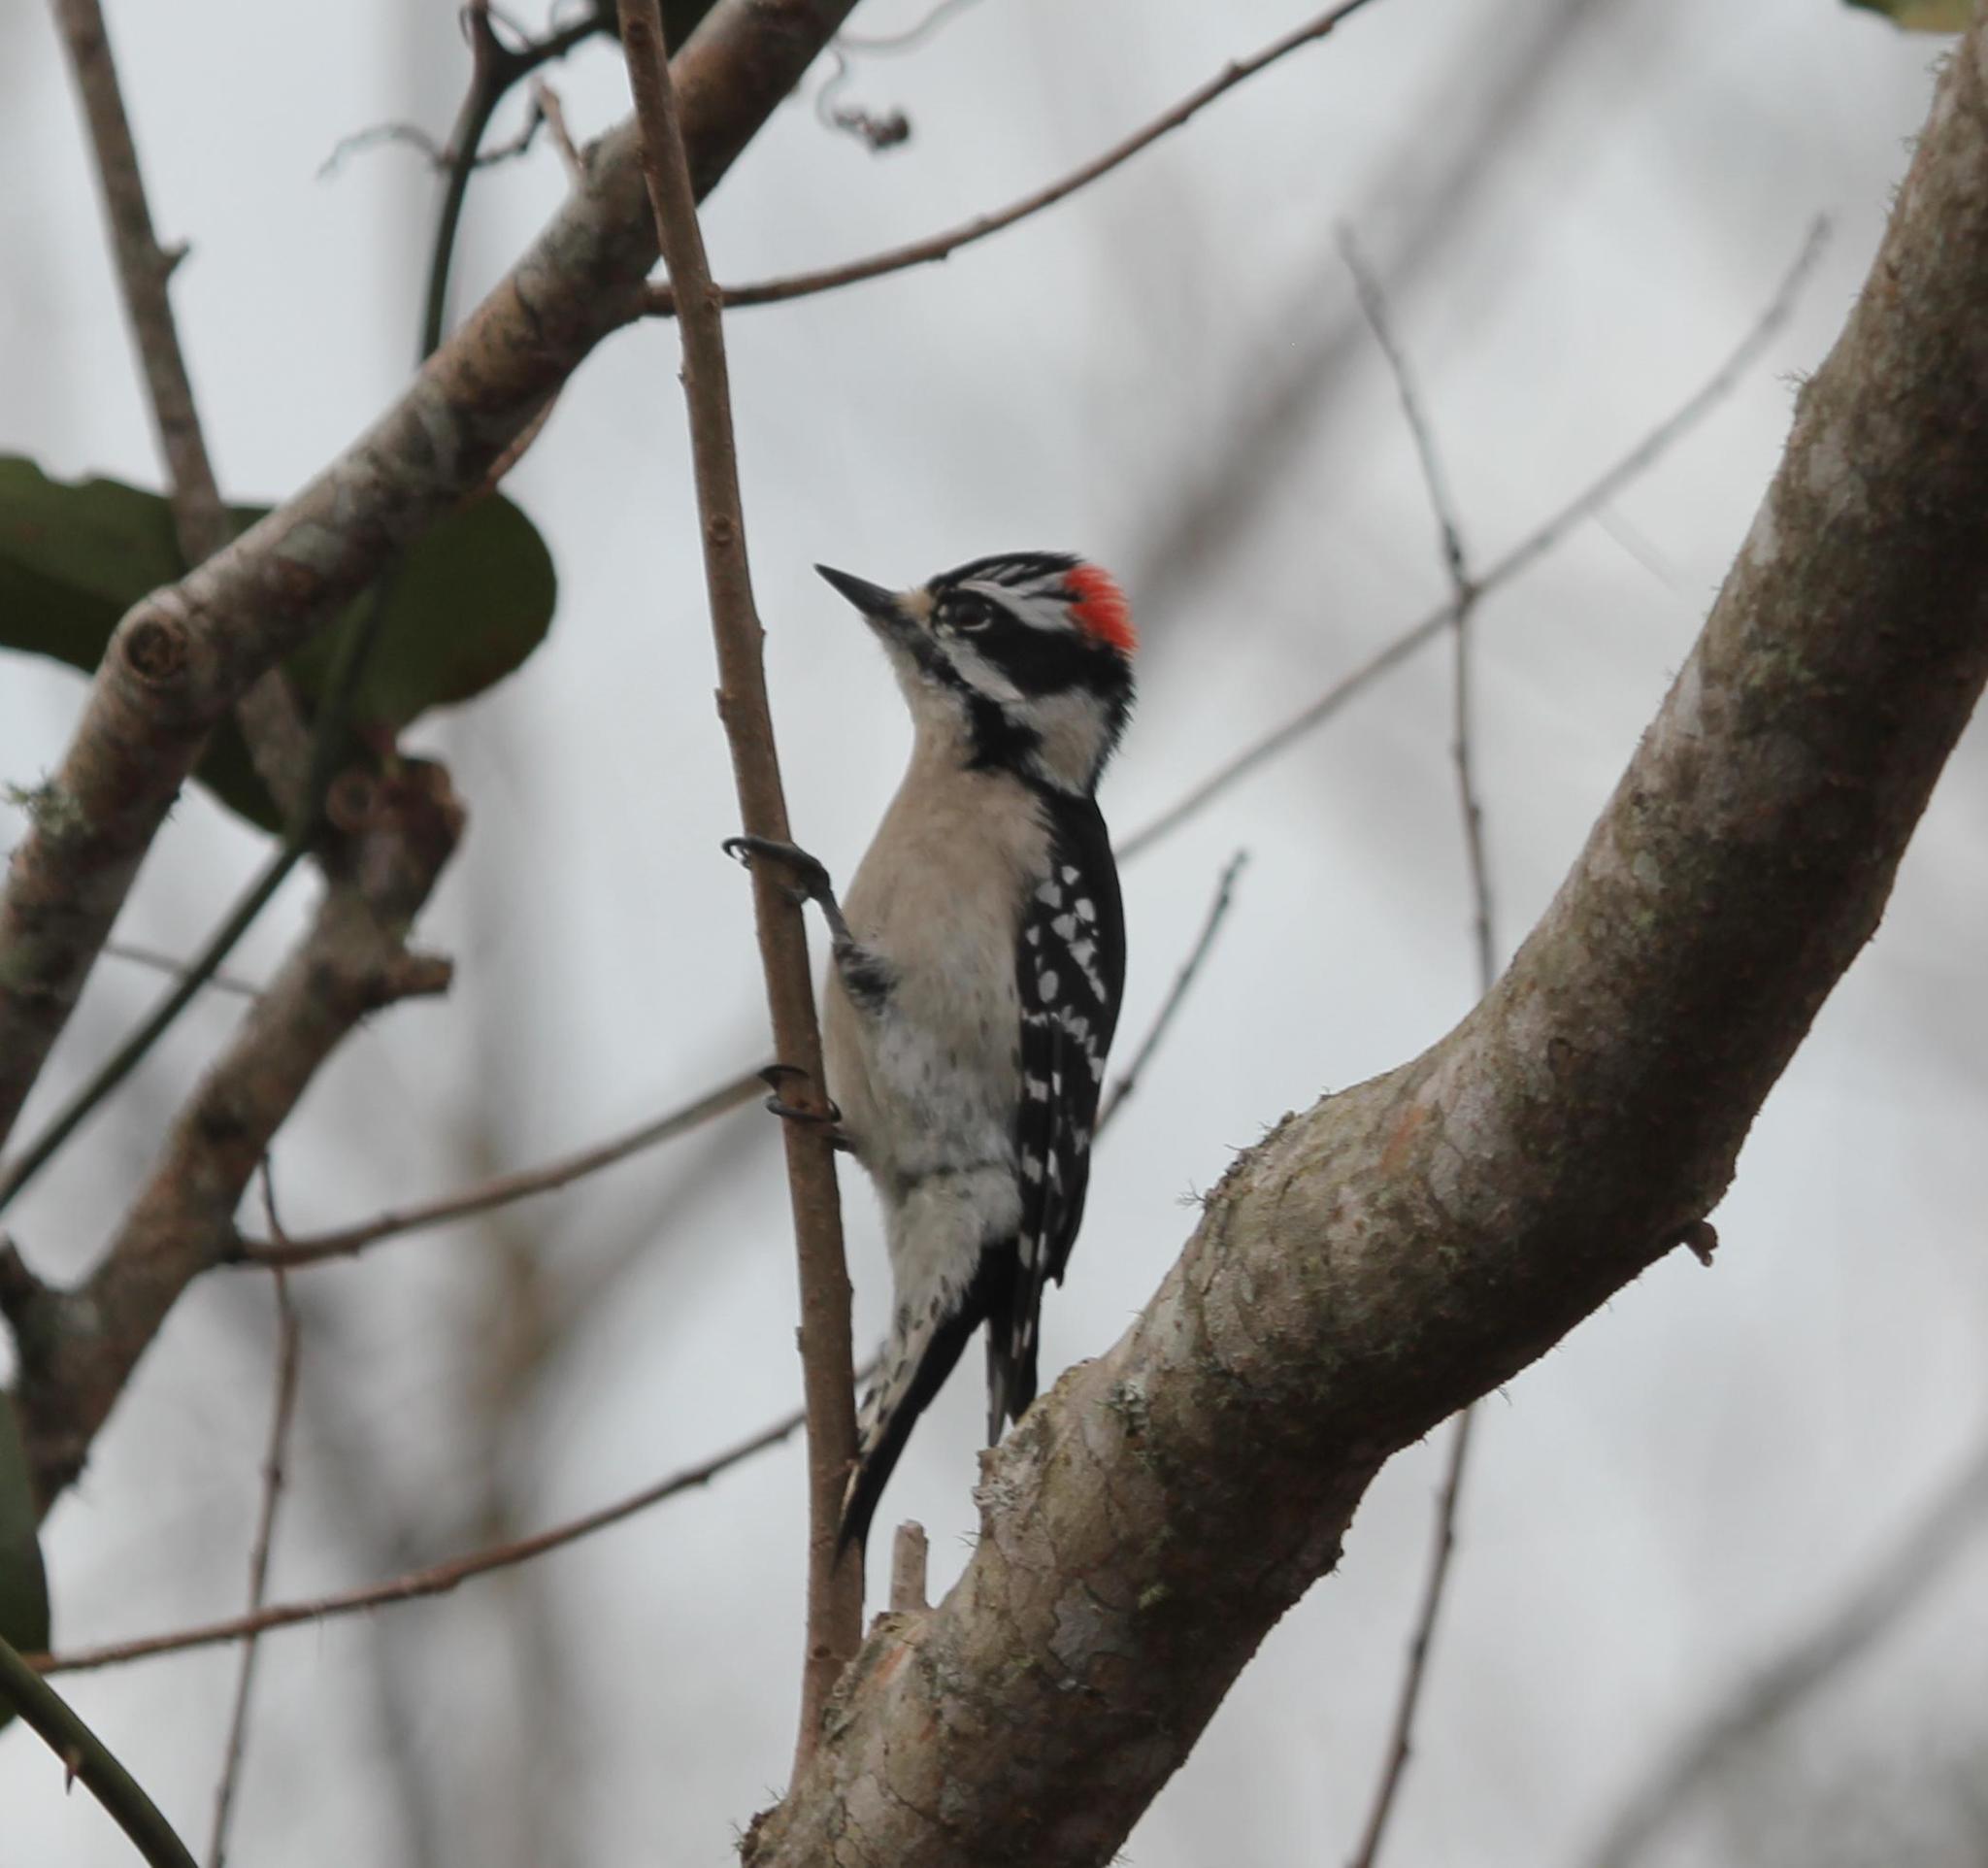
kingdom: Animalia
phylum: Chordata
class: Aves
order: Piciformes
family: Picidae
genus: Dryobates
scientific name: Dryobates pubescens
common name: Downy woodpecker
